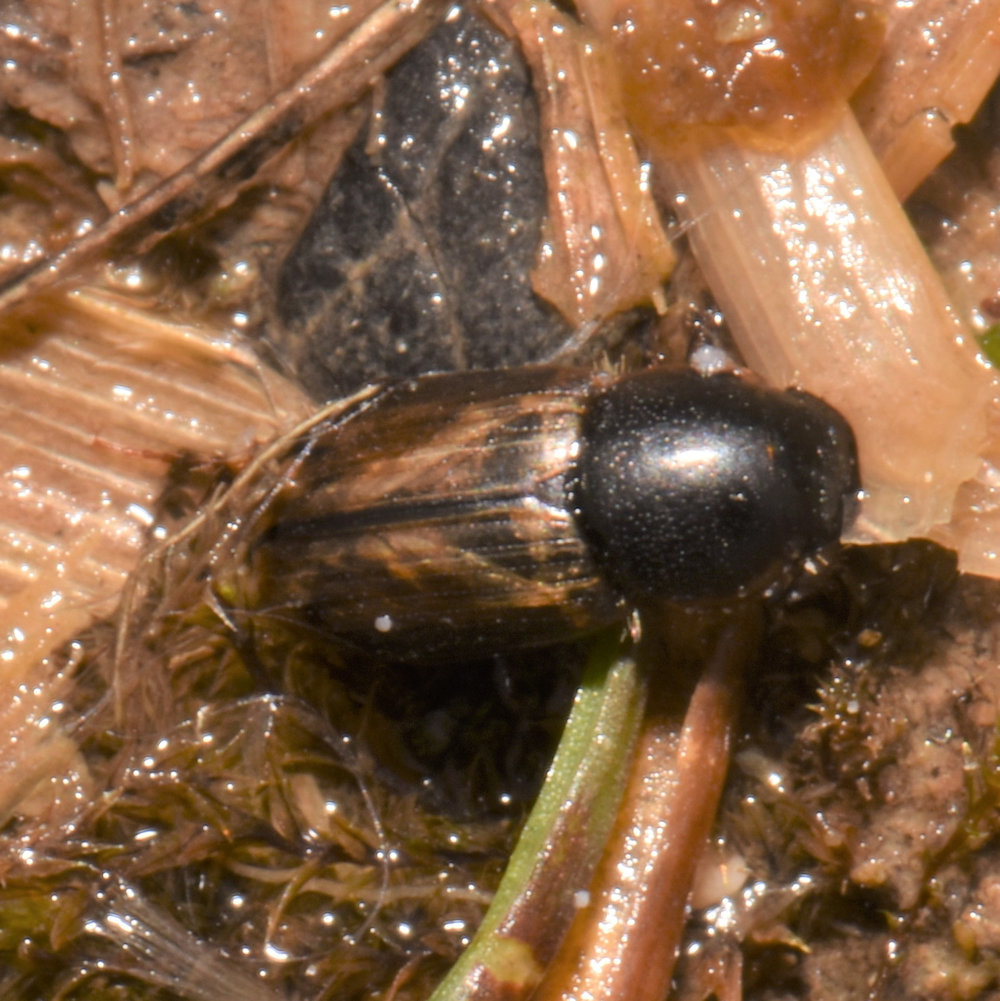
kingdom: Animalia
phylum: Arthropoda
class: Insecta
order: Coleoptera
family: Scarabaeidae
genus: Melinopterus
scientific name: Melinopterus prodromus
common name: Spring small dung beetle
